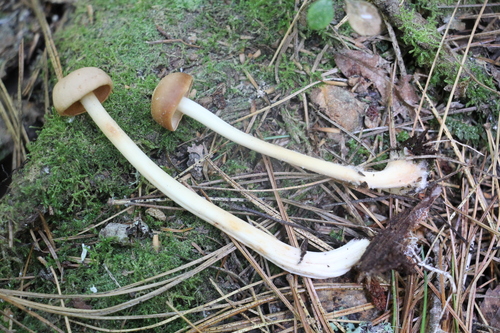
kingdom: Fungi
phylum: Basidiomycota
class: Agaricomycetes
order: Agaricales
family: Omphalotaceae
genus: Gymnopus
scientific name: Gymnopus dryophilus
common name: Penny top
